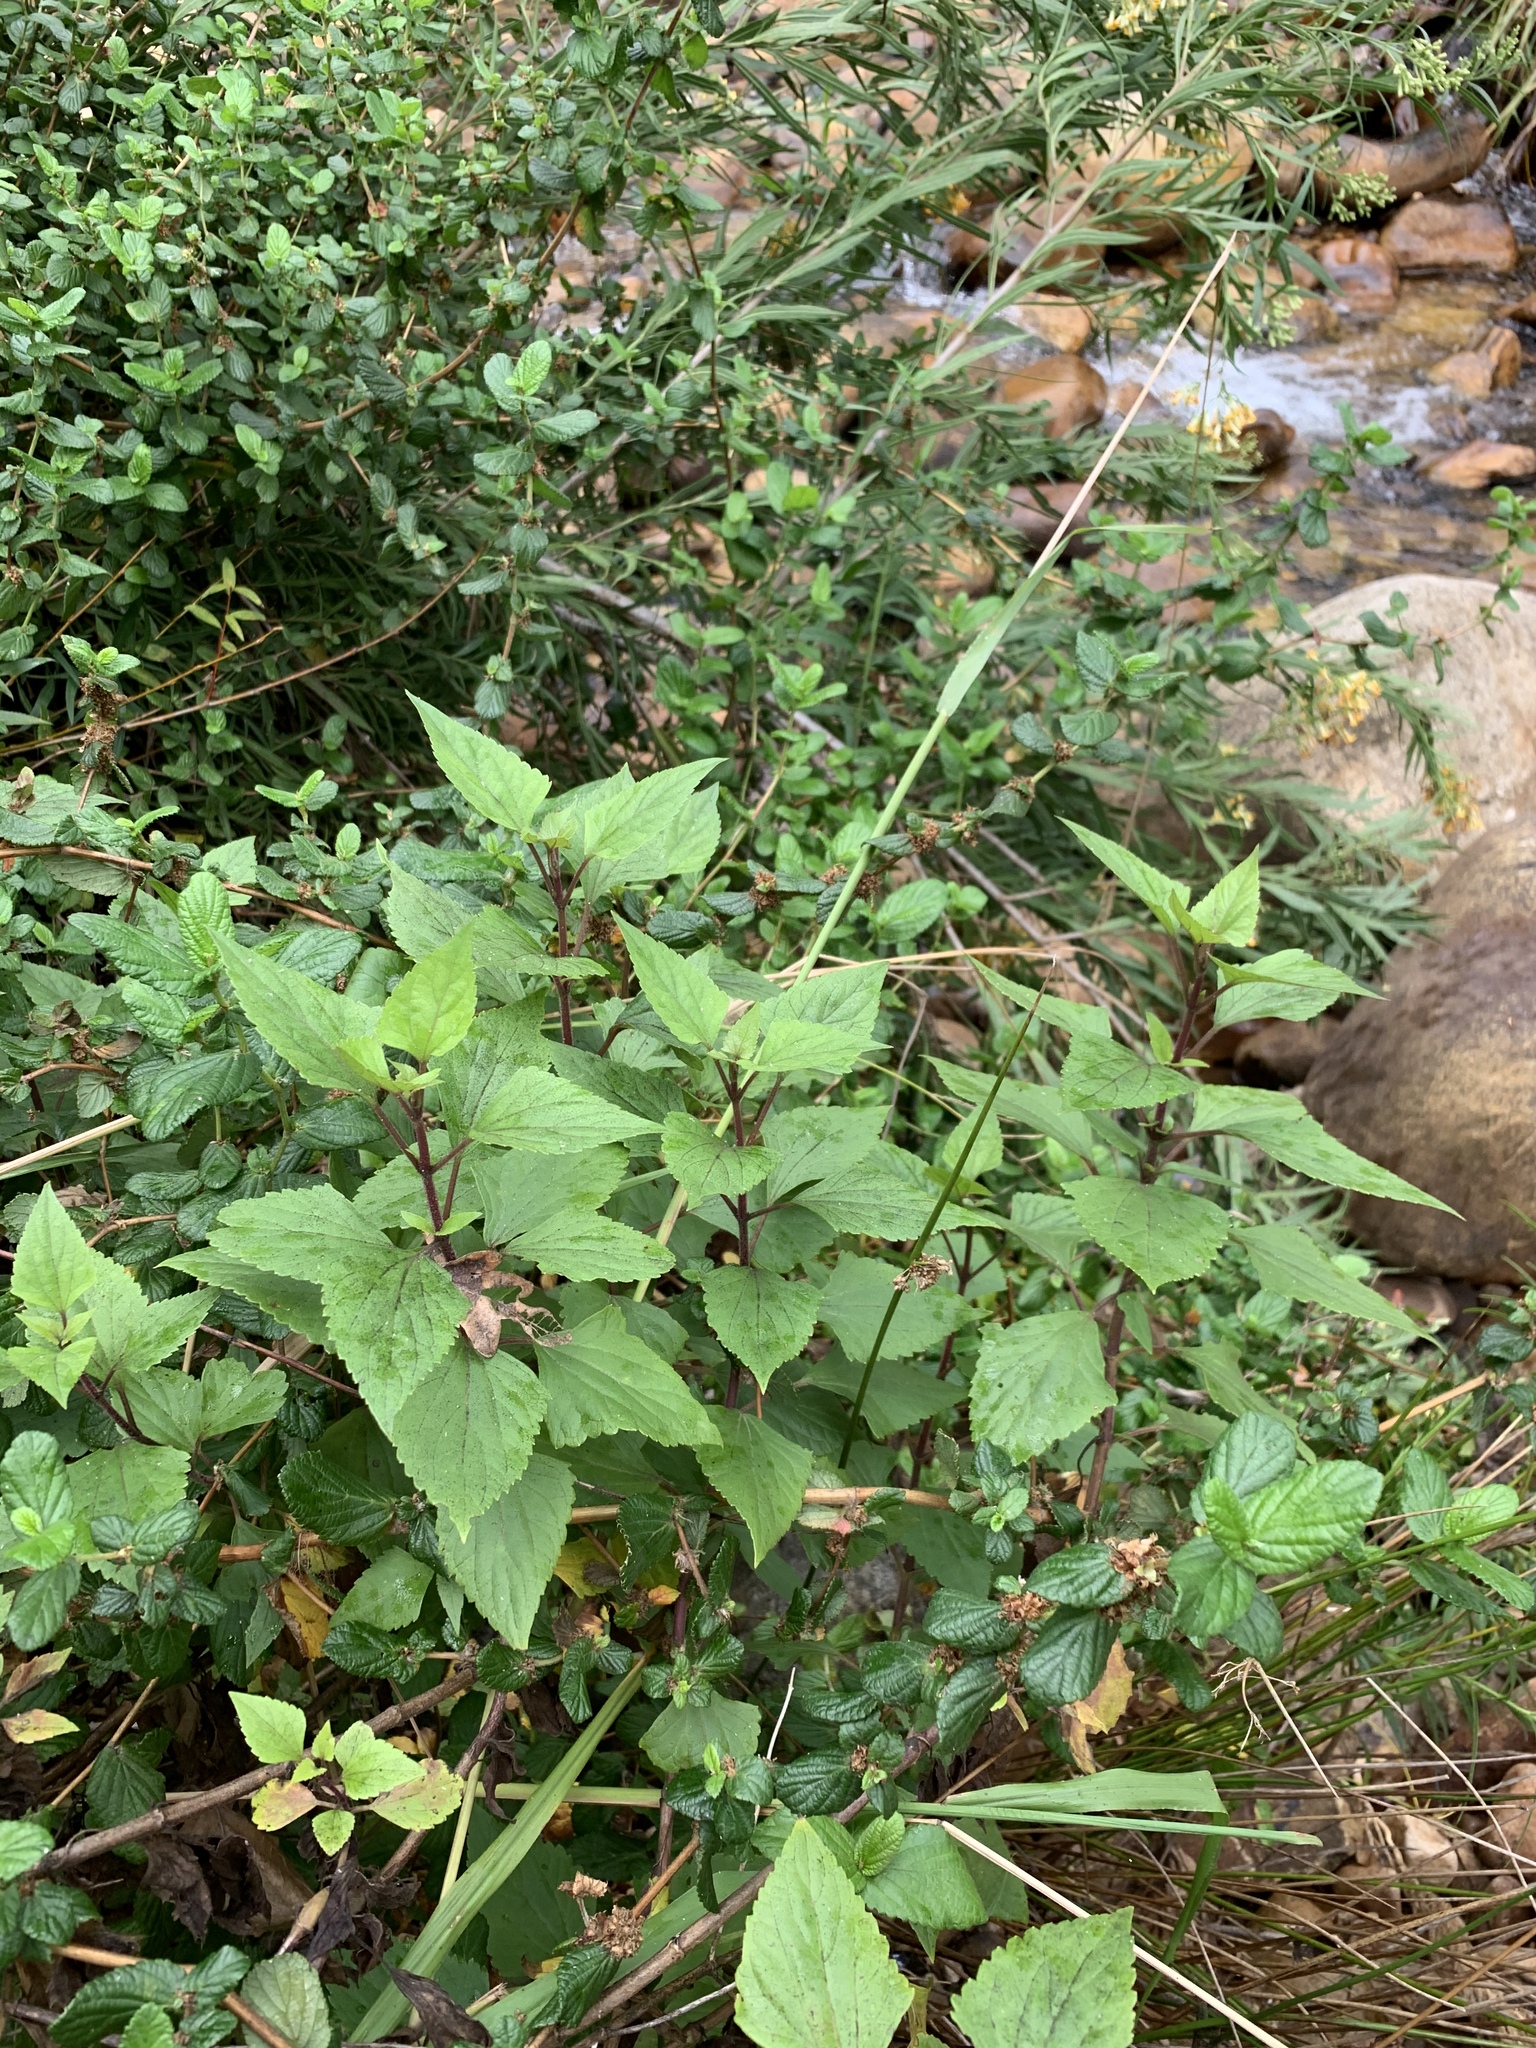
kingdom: Plantae
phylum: Tracheophyta
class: Magnoliopsida
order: Asterales
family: Asteraceae
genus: Ageratina
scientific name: Ageratina adenophora
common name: Sticky snakeroot
